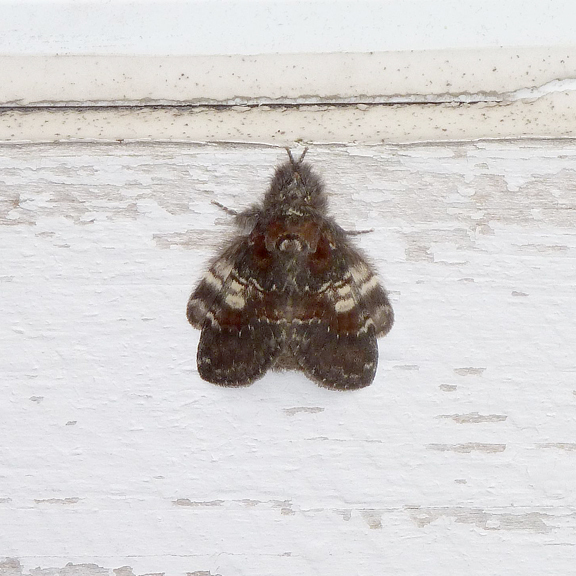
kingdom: Animalia
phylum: Arthropoda
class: Insecta
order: Lepidoptera
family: Notodontidae
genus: Peridea
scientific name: Peridea ferruginea
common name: Chocolate prominent
